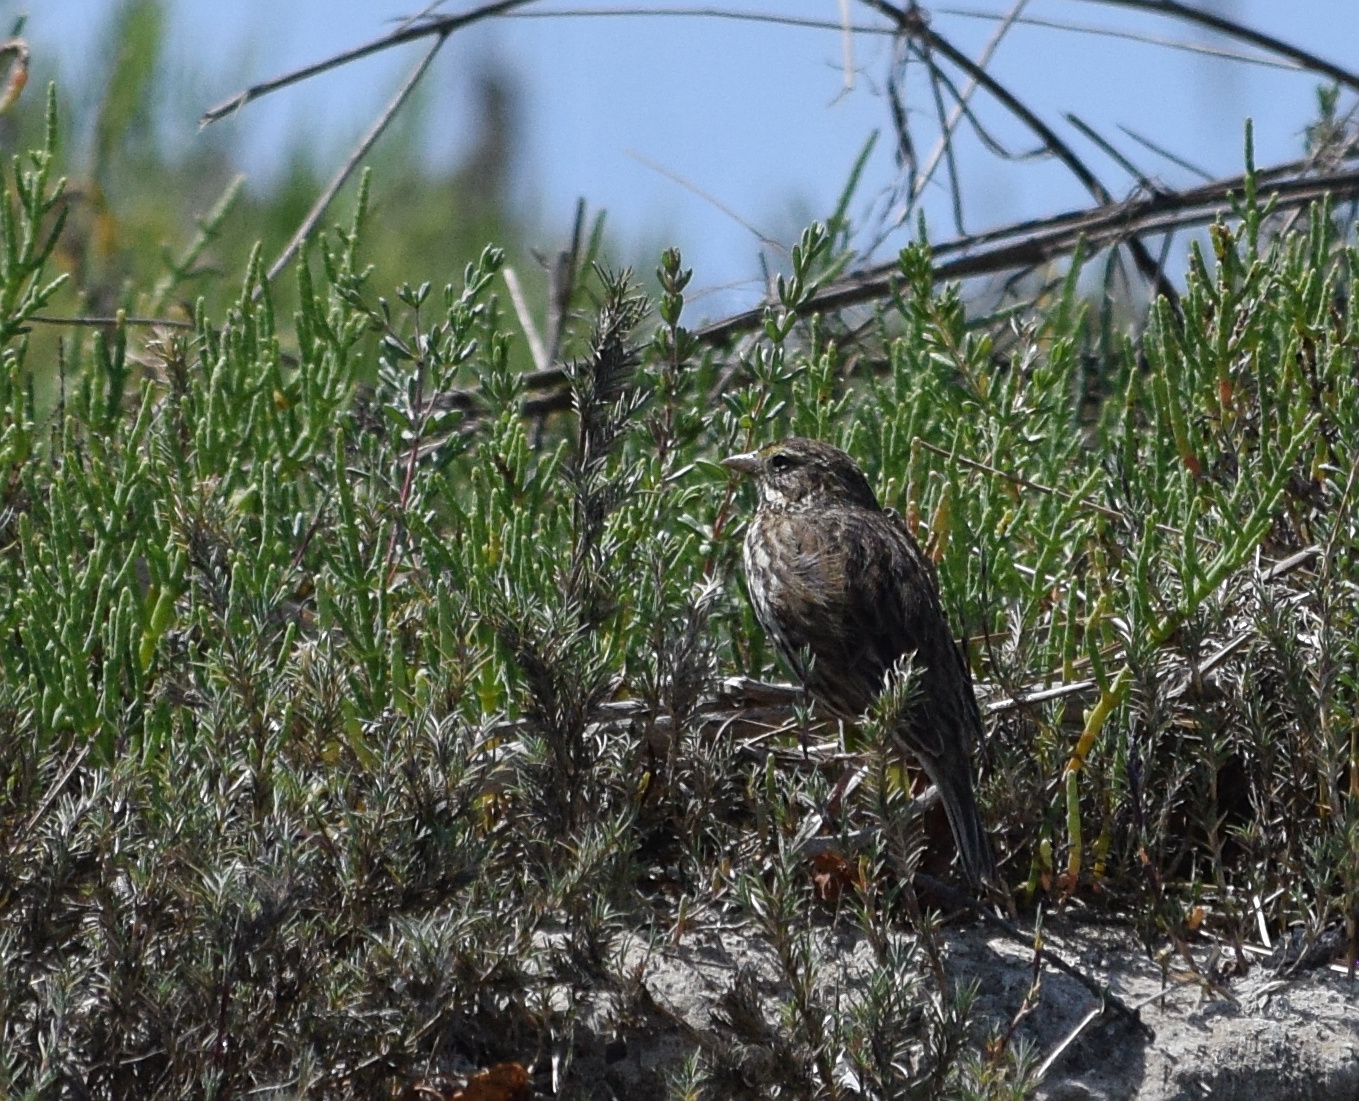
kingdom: Animalia
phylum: Chordata
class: Aves
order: Passeriformes
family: Passerellidae
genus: Passerculus
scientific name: Passerculus sandwichensis
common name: Savannah sparrow
